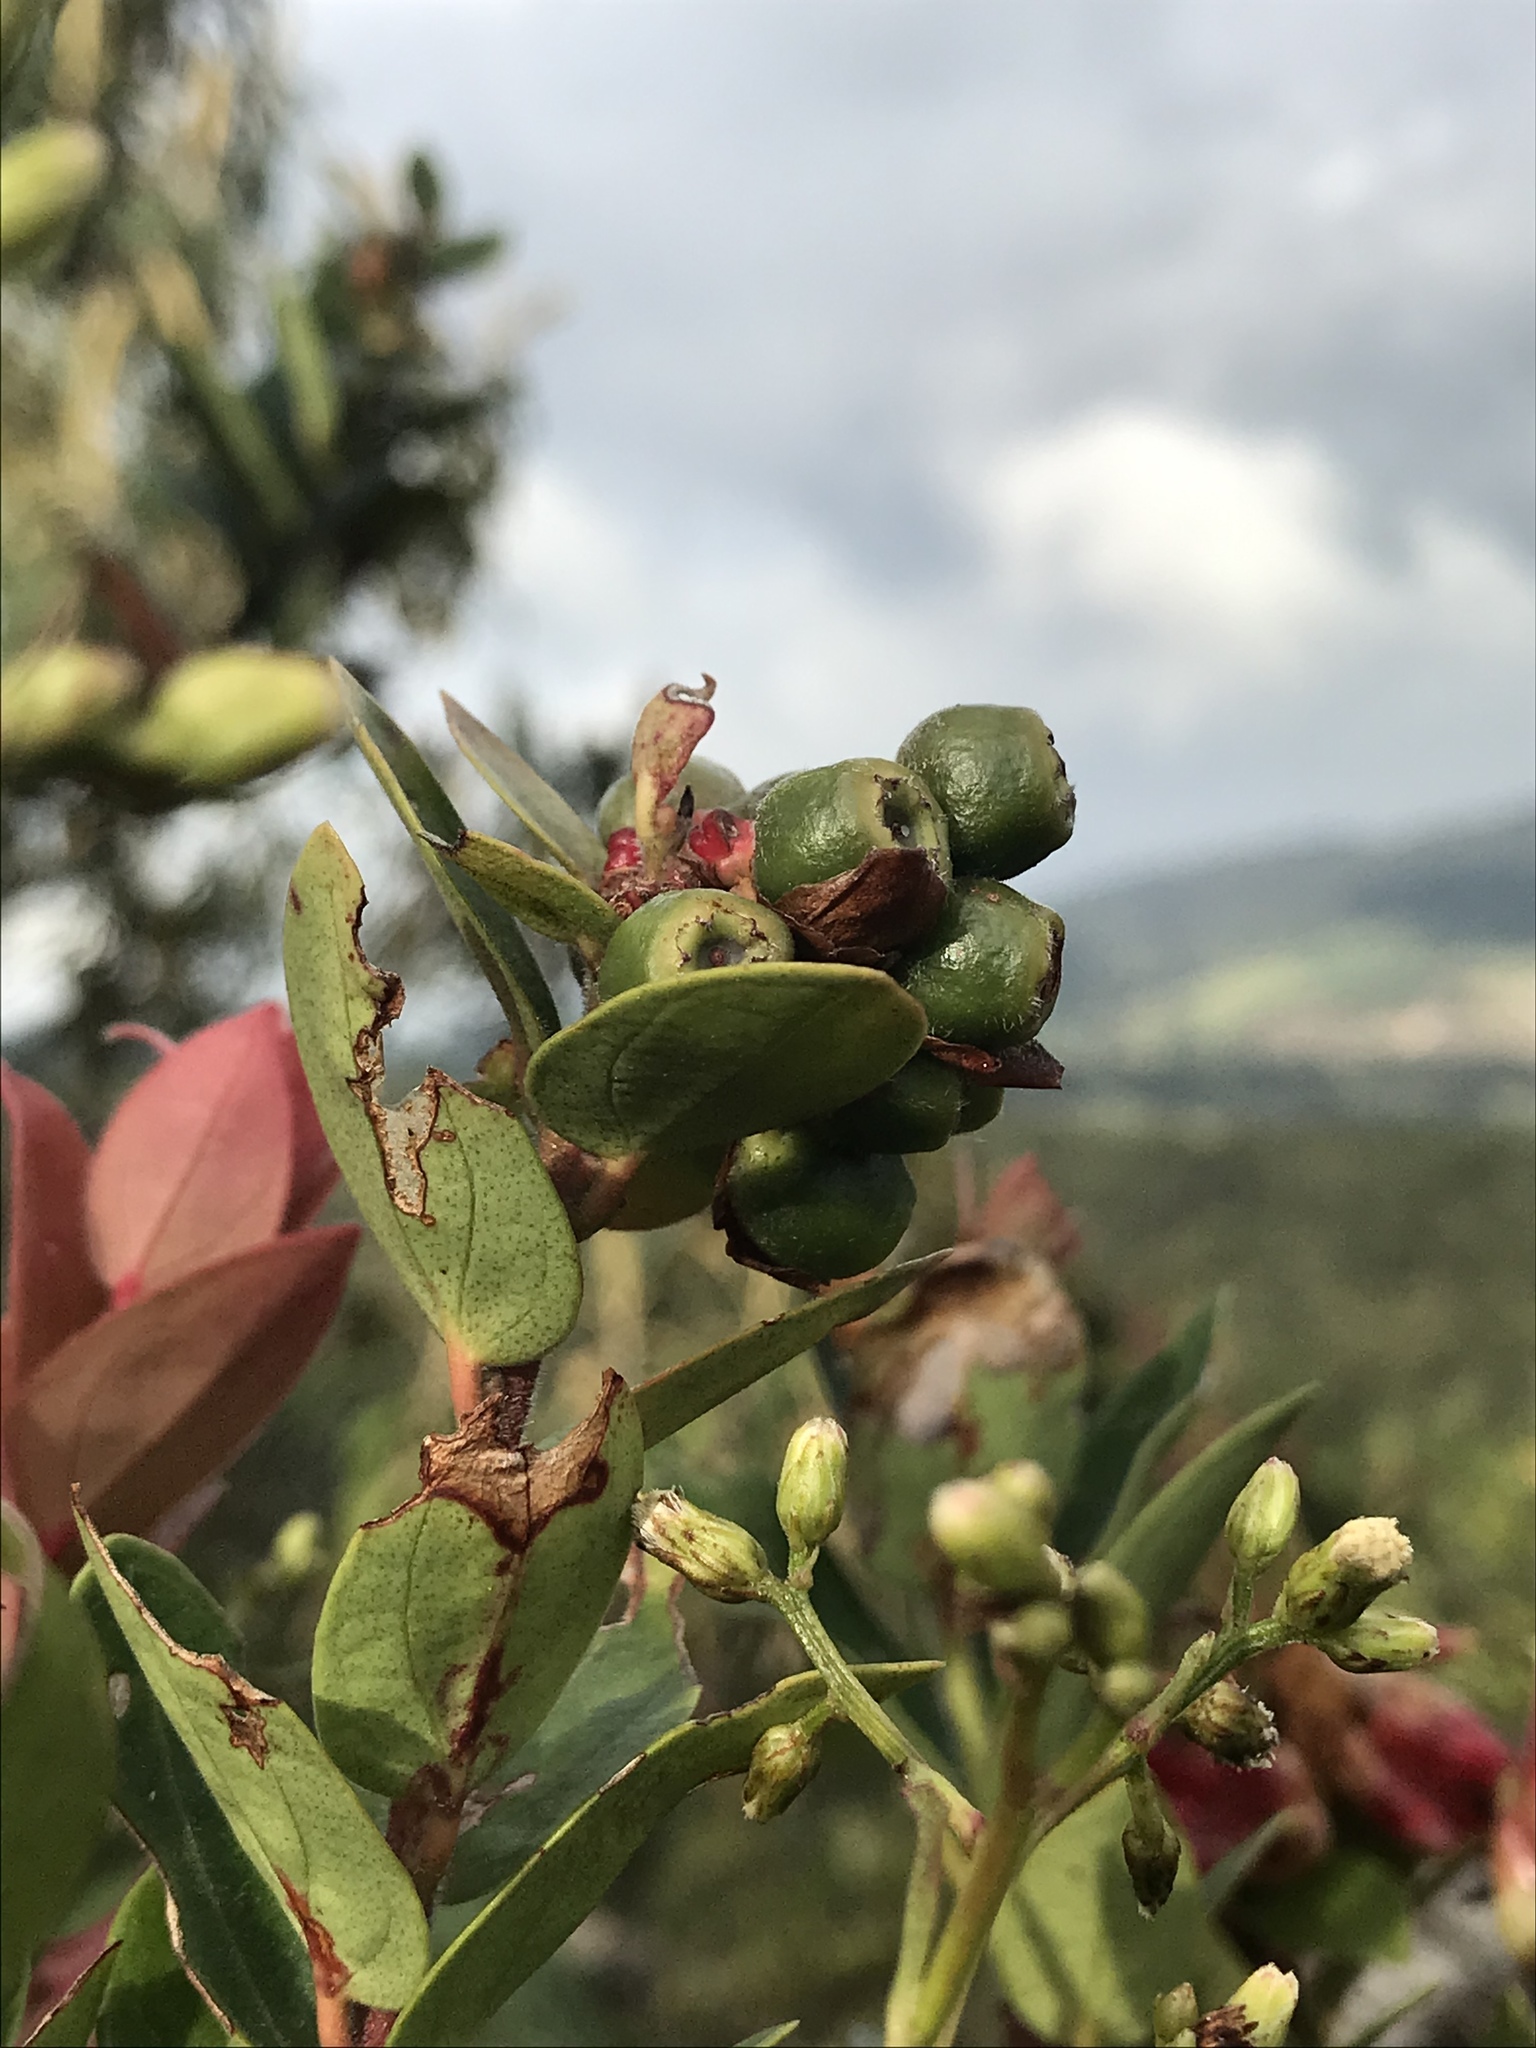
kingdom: Plantae
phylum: Tracheophyta
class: Magnoliopsida
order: Ericales
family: Ericaceae
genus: Cavendishia
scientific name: Cavendishia bracteata
